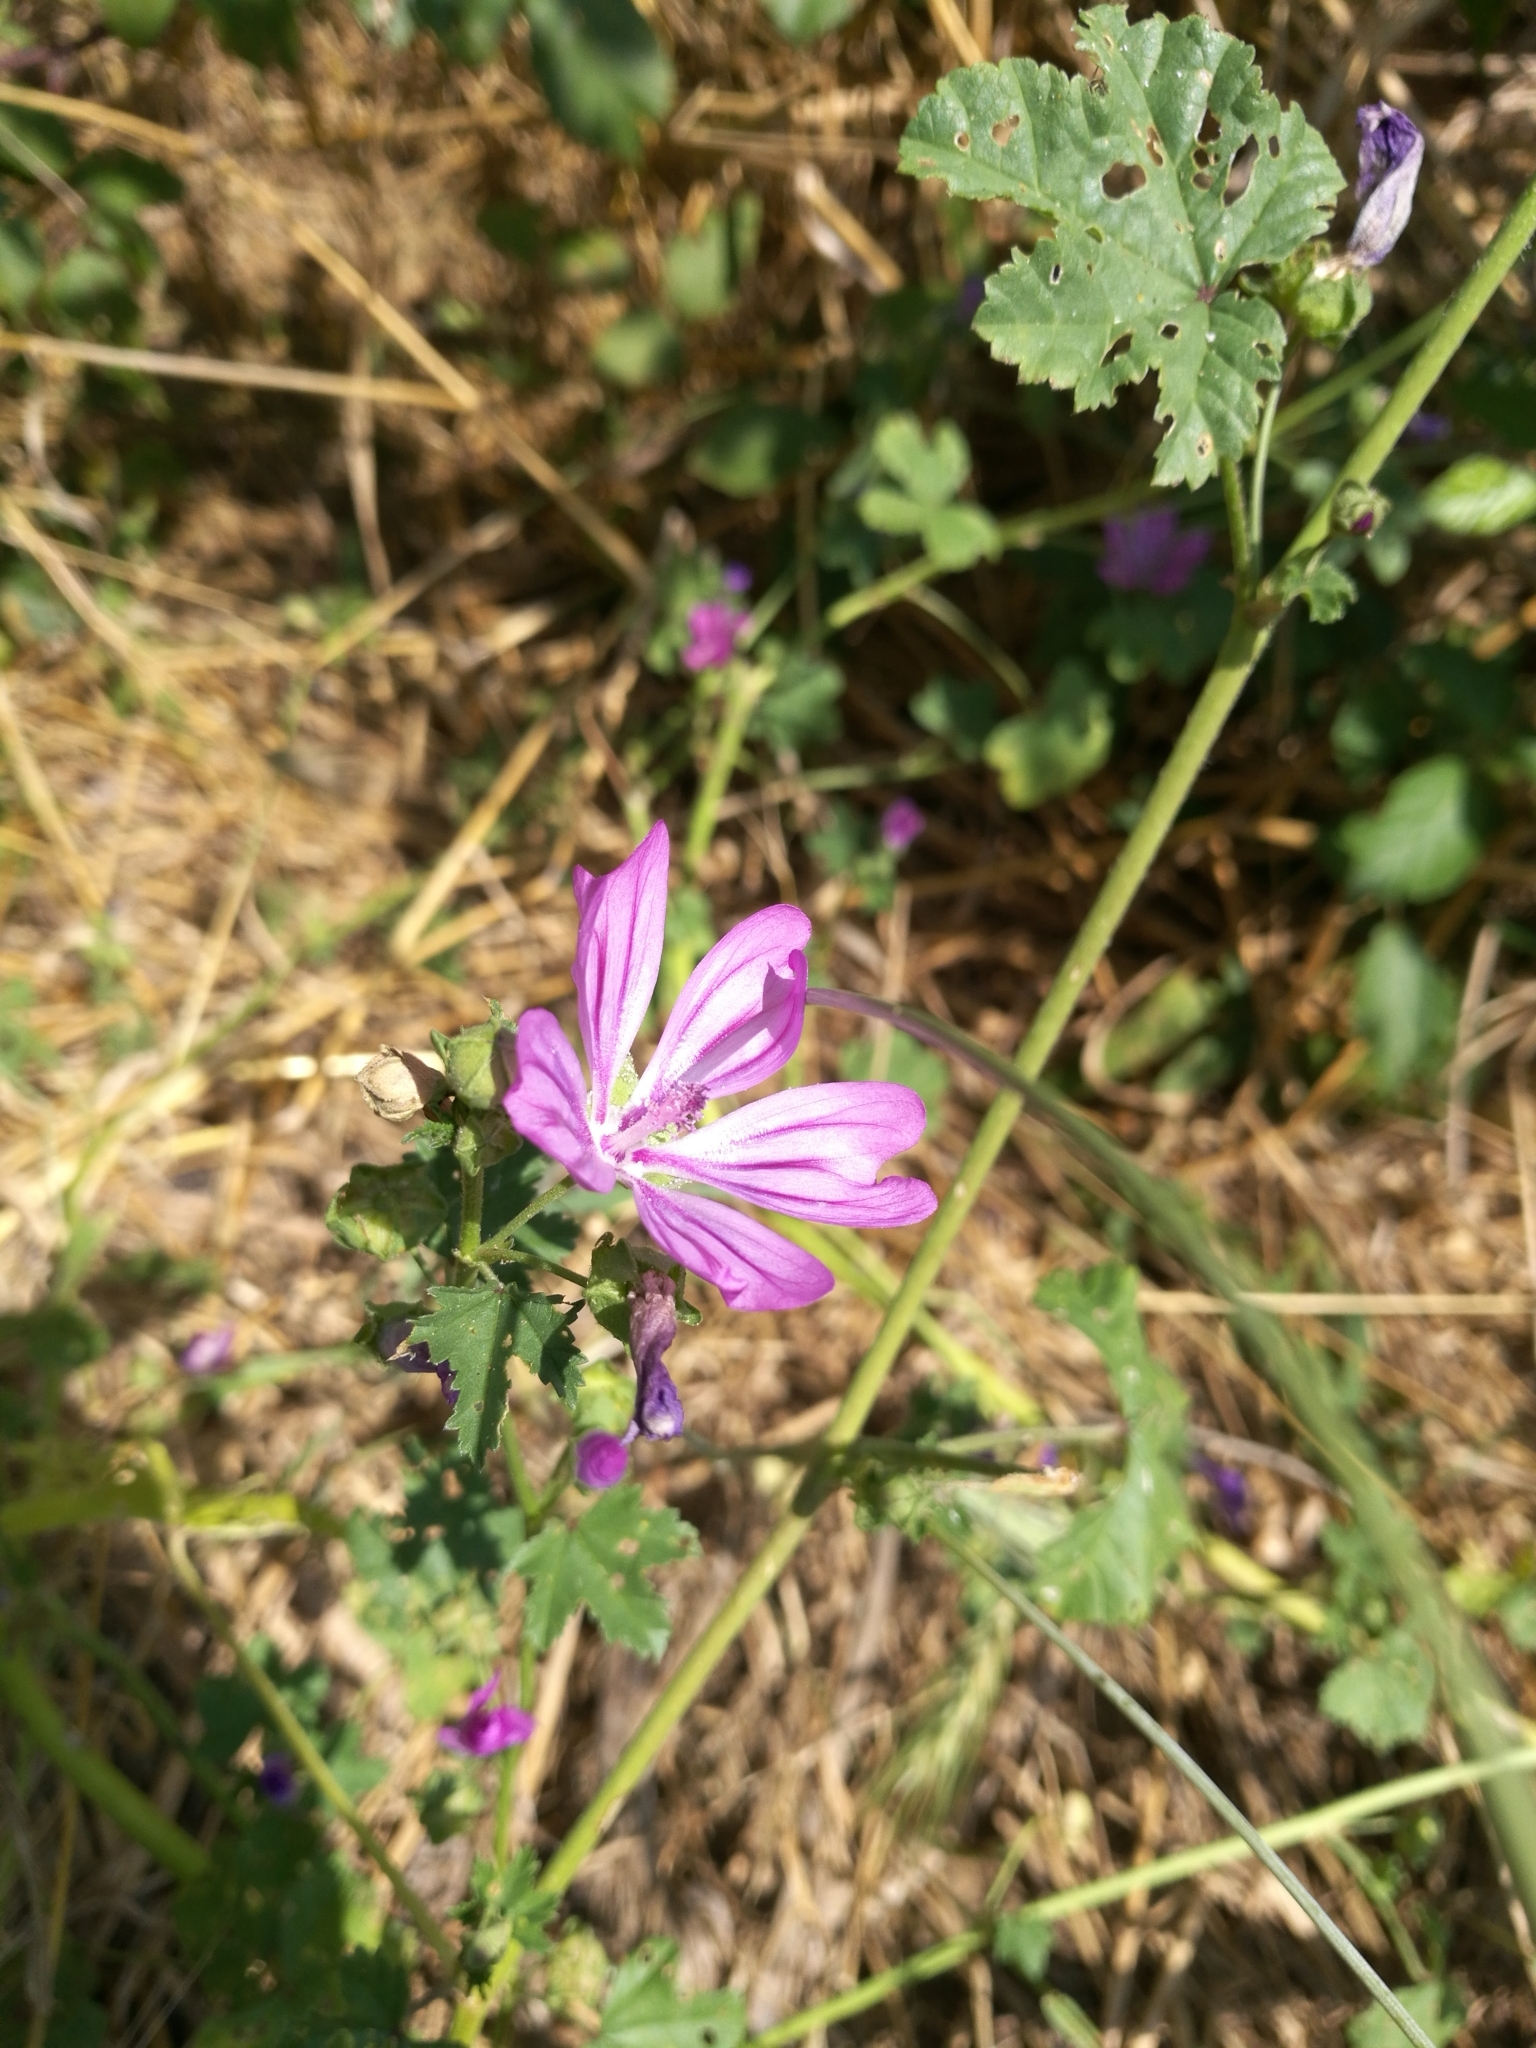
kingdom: Plantae
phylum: Tracheophyta
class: Magnoliopsida
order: Malvales
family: Malvaceae
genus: Malva
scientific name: Malva sylvestris
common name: Common mallow
